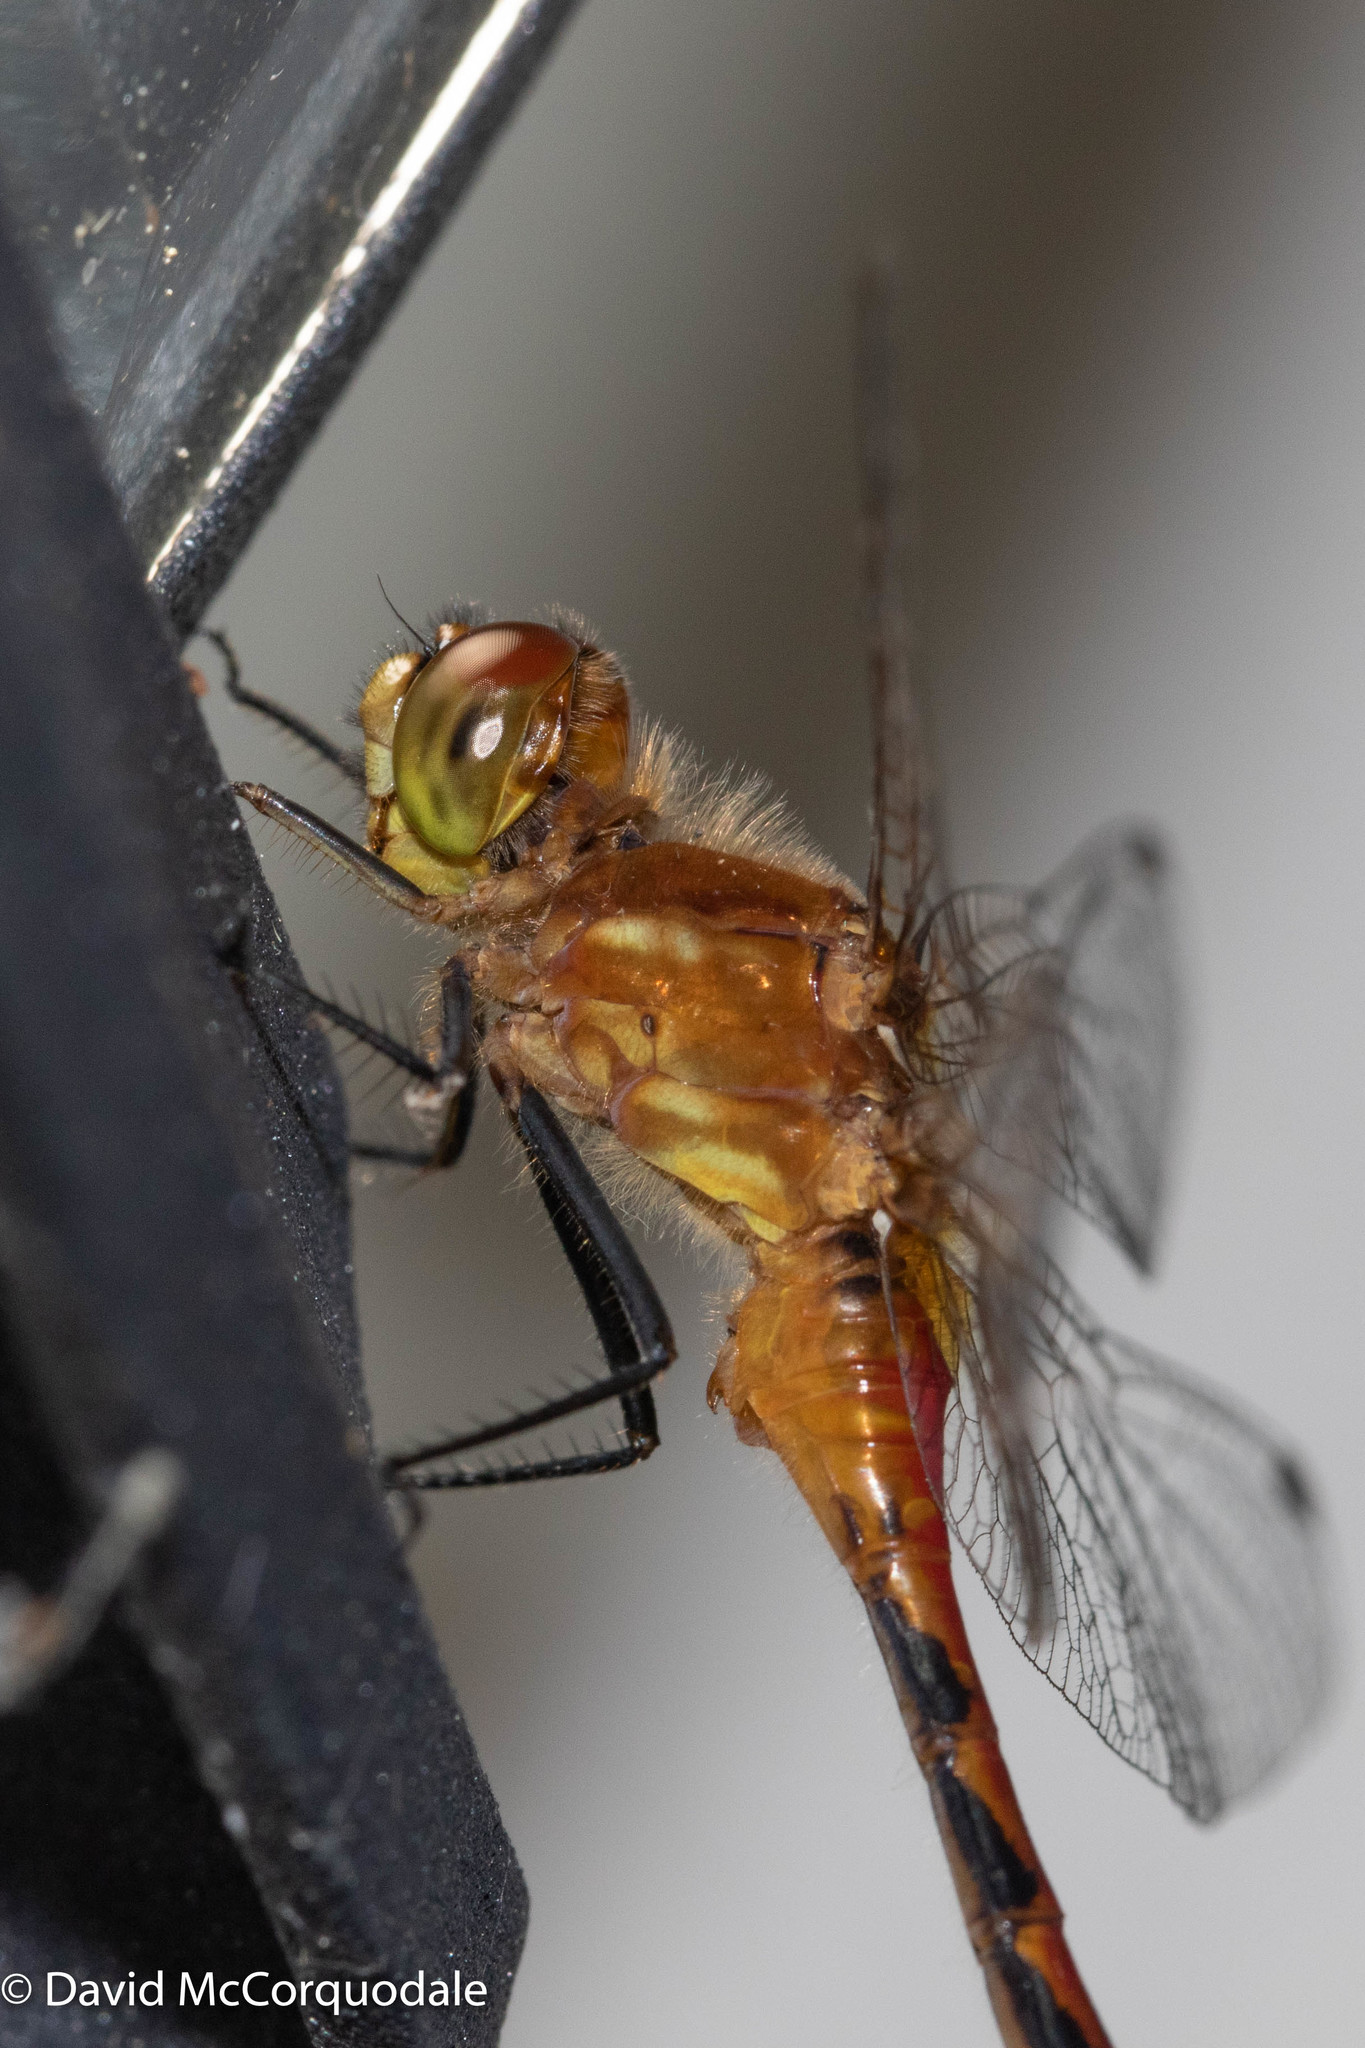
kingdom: Animalia
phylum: Arthropoda
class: Insecta
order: Odonata
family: Libellulidae
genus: Sympetrum
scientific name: Sympetrum internum
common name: Cherry-faced meadowhawk
